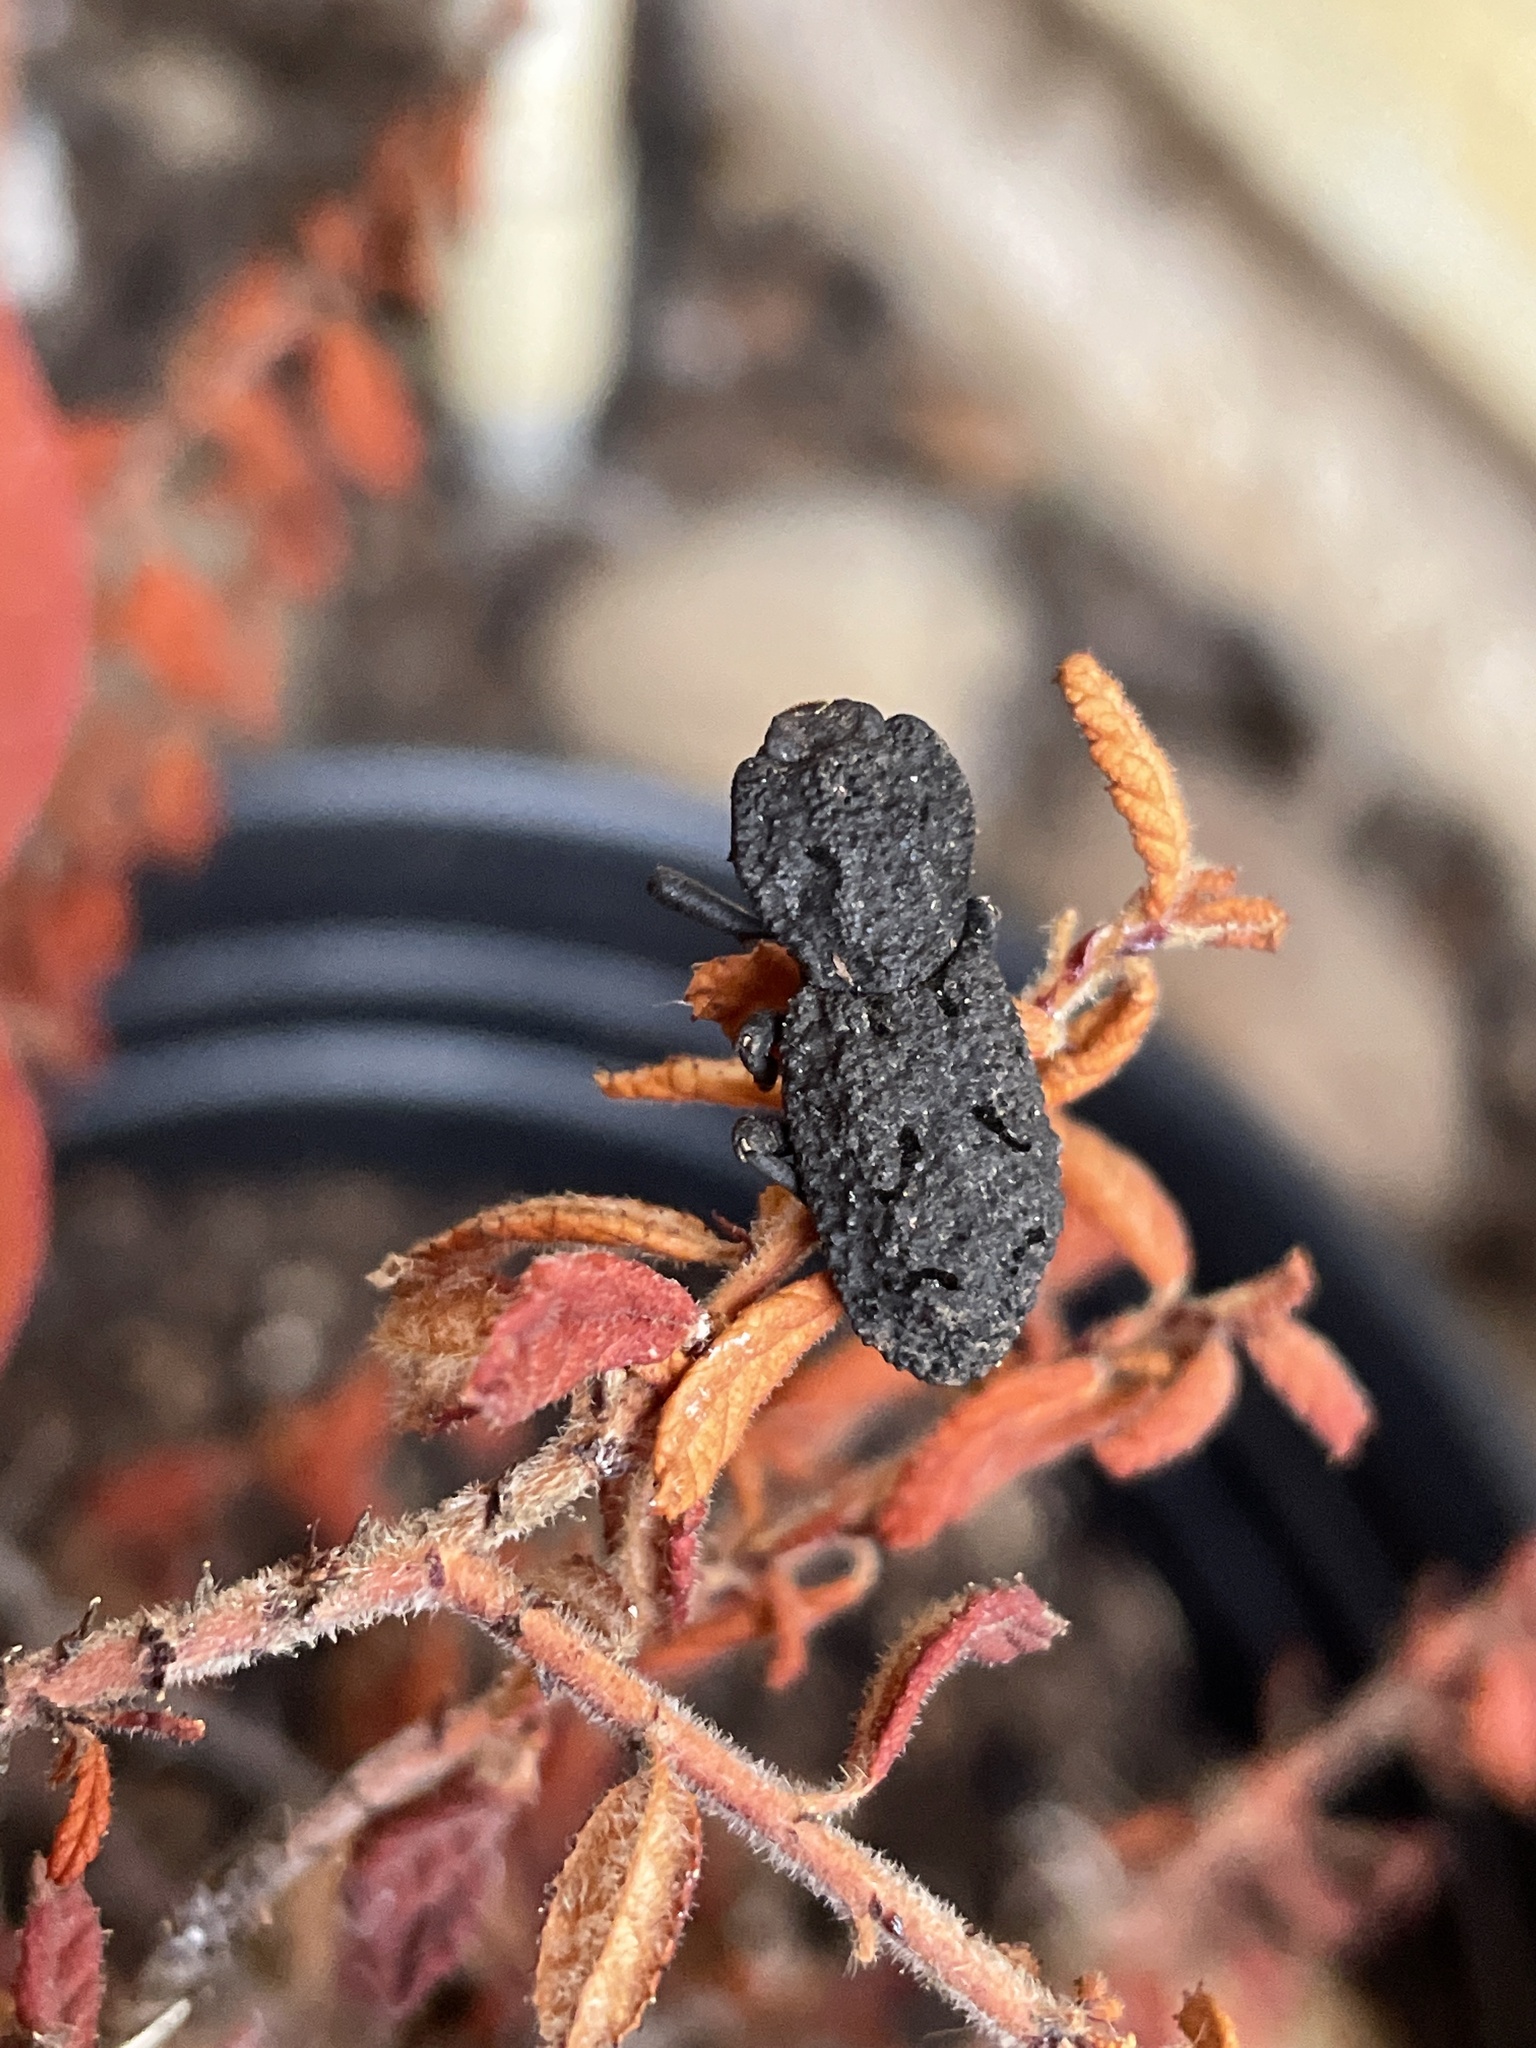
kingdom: Animalia
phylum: Arthropoda
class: Insecta
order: Coleoptera
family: Zopheridae
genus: Phloeodes
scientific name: Phloeodes diabolicus
